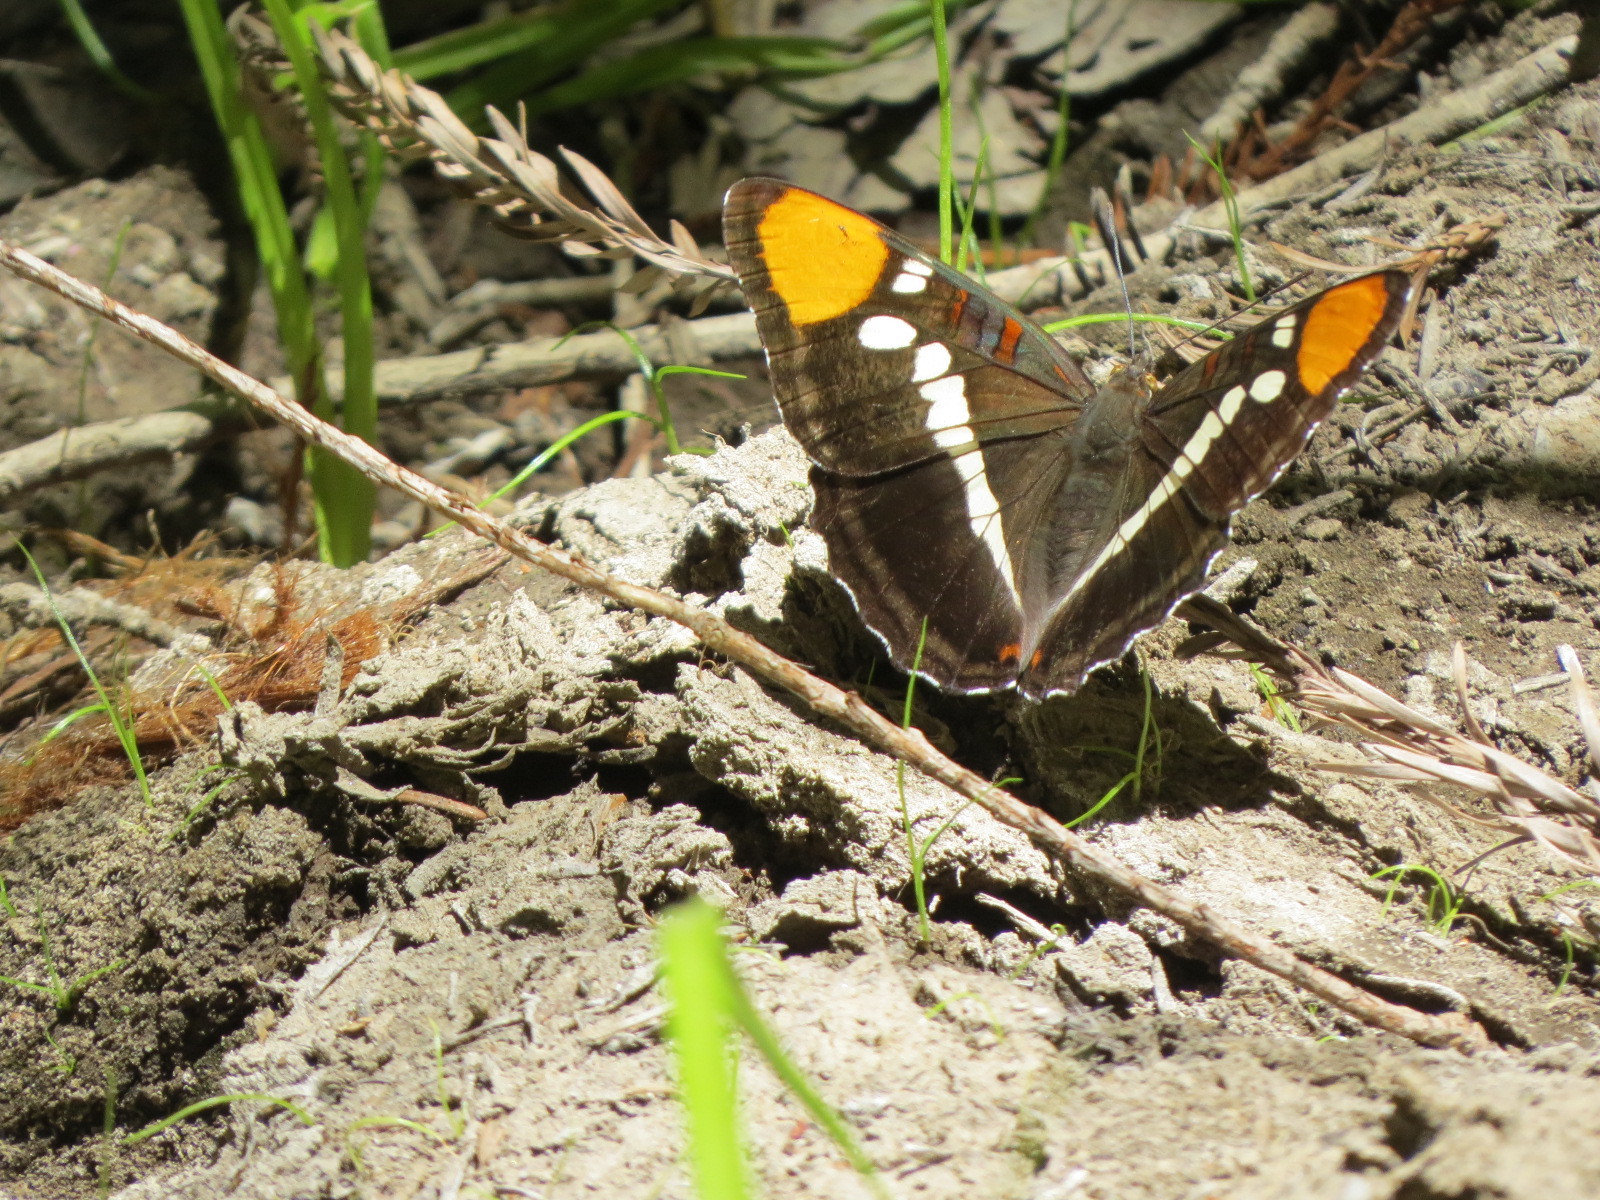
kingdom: Animalia
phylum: Arthropoda
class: Insecta
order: Lepidoptera
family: Nymphalidae
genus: Limenitis
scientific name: Limenitis bredowii
